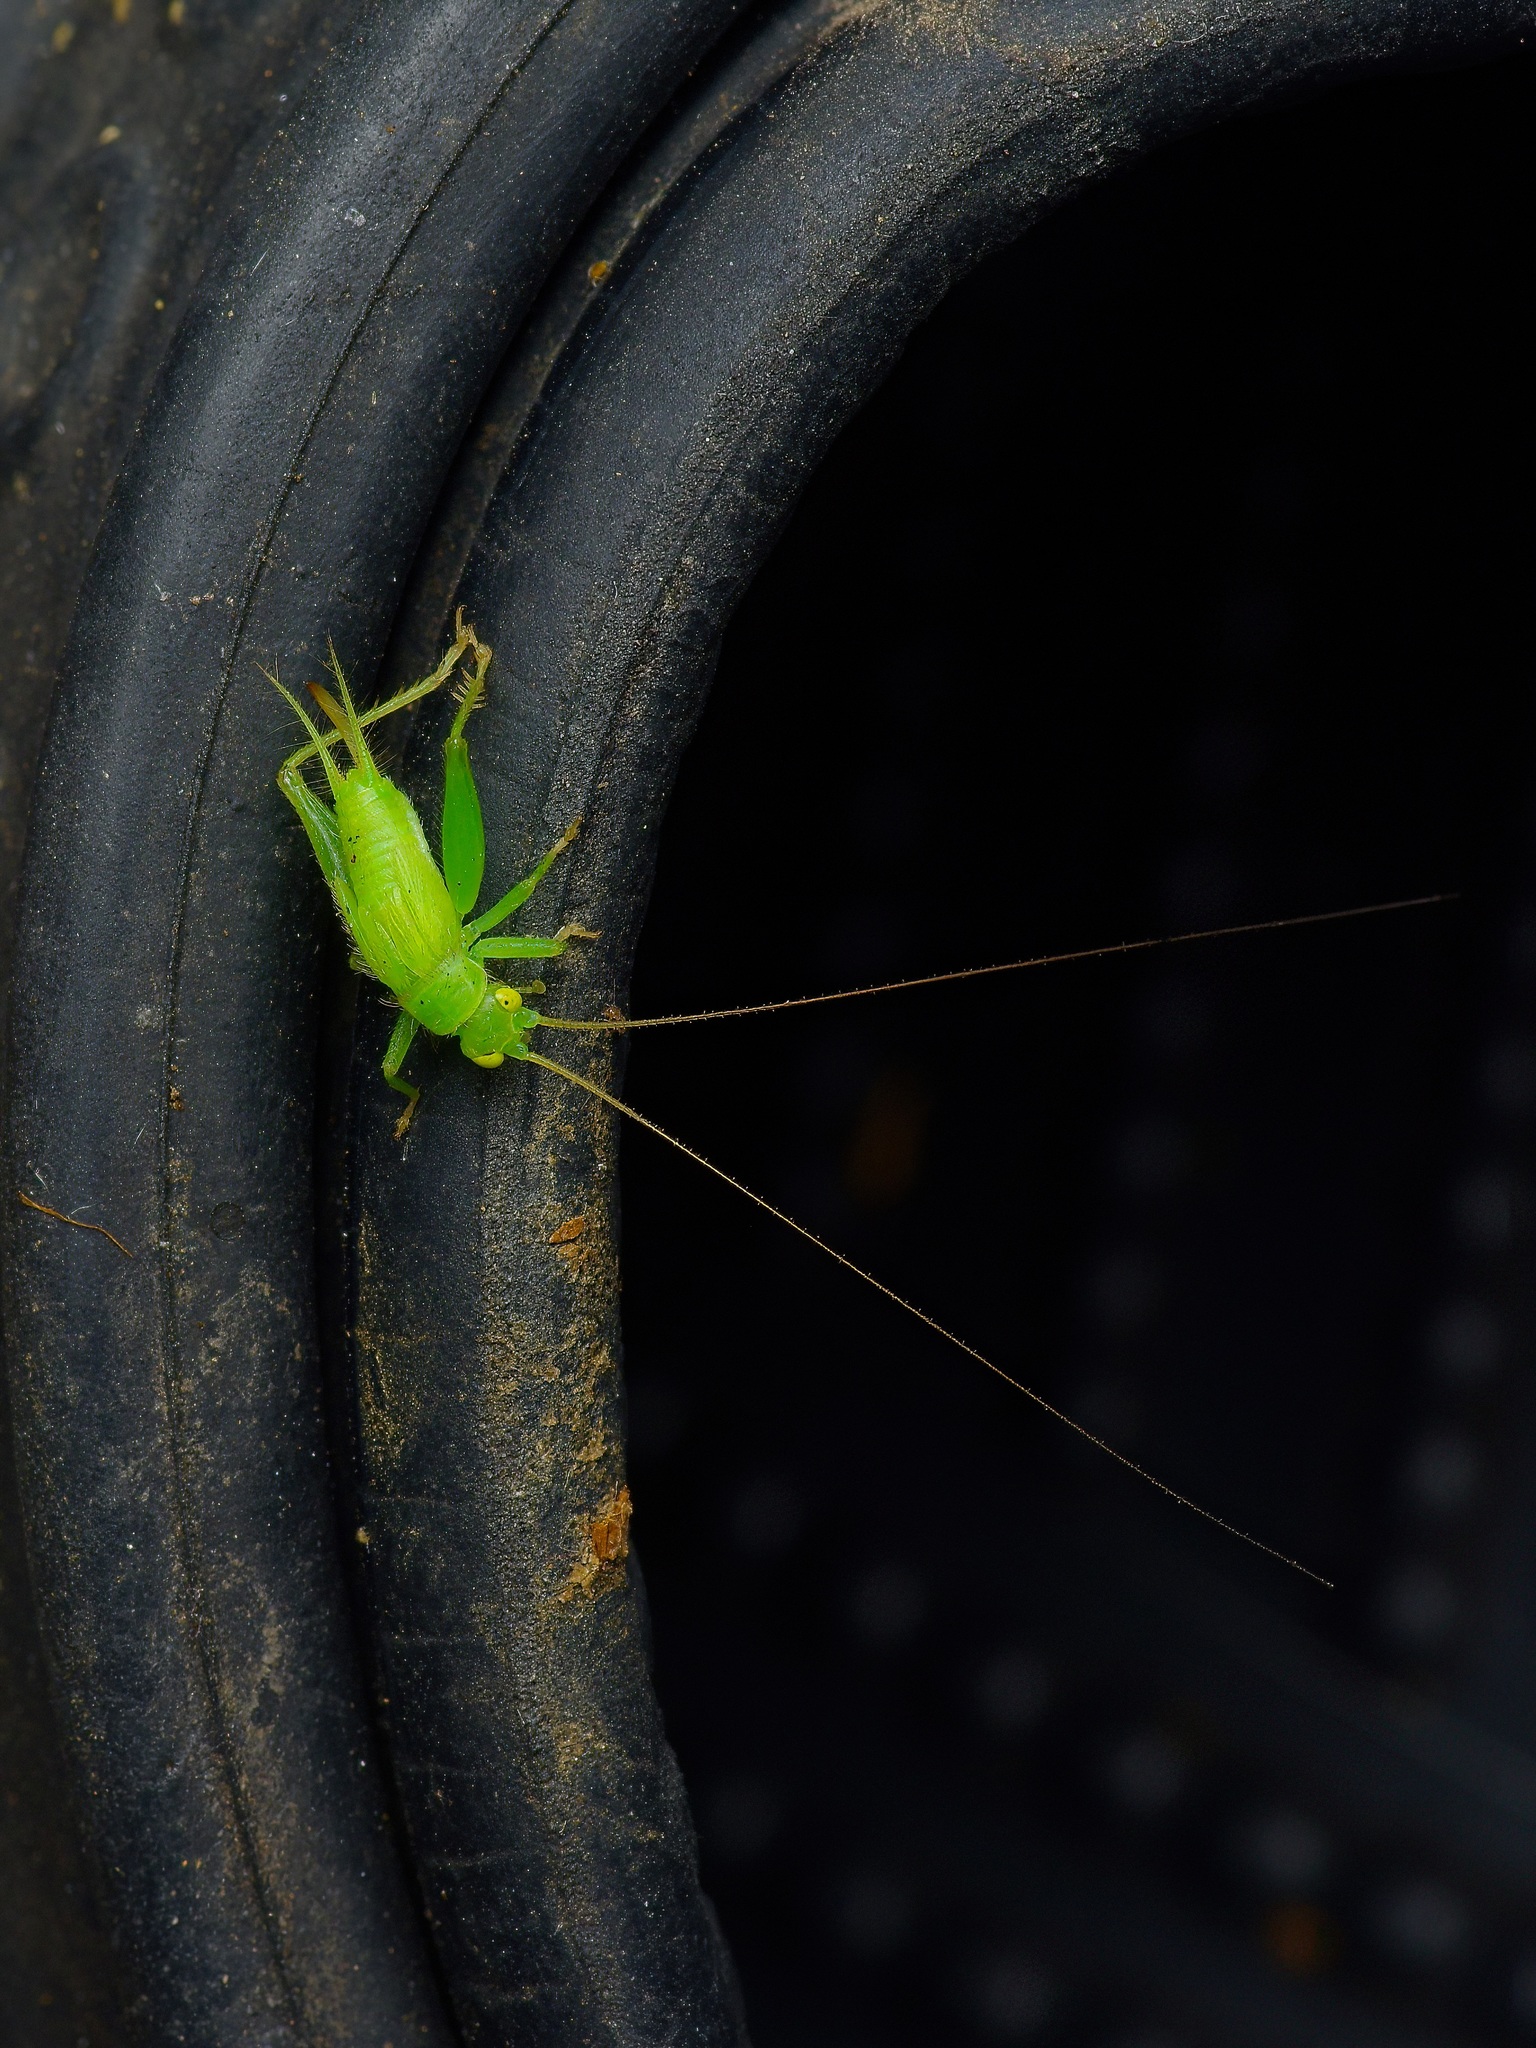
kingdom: Animalia
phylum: Arthropoda
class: Insecta
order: Orthoptera
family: Trigonidiidae
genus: Cyrtoxipha
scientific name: Cyrtoxipha columbiana
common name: Columbian trig
